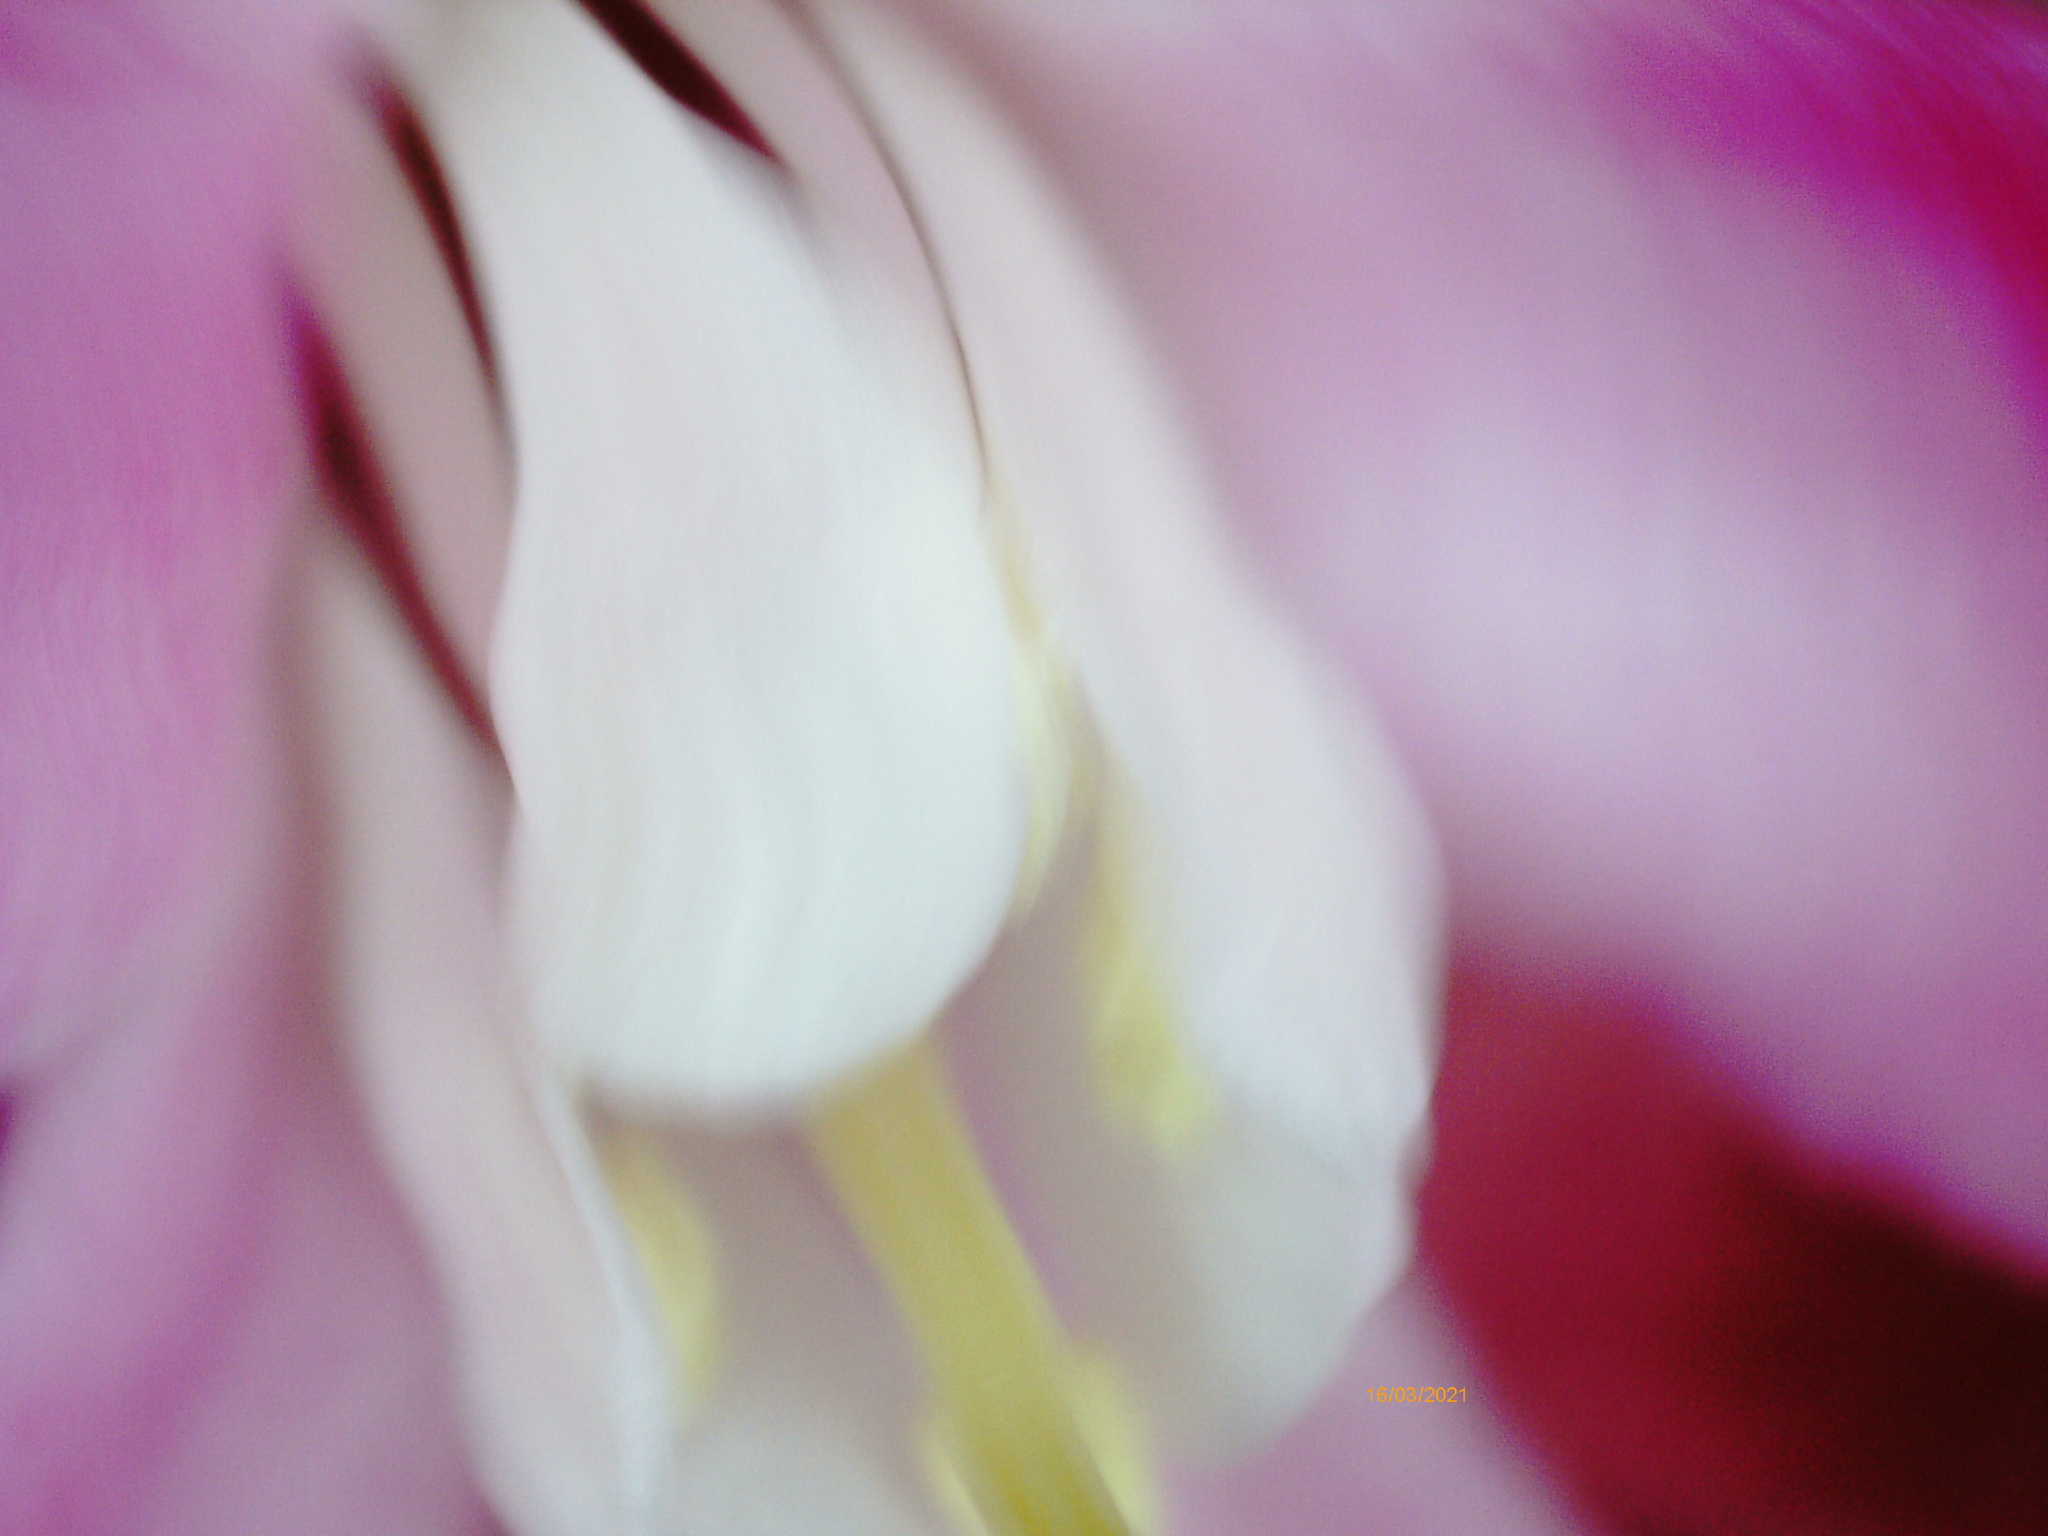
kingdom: Plantae
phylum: Tracheophyta
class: Magnoliopsida
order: Saxifragales
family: Grossulariaceae
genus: Ribes
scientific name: Ribes sanguineum
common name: Flowering currant
